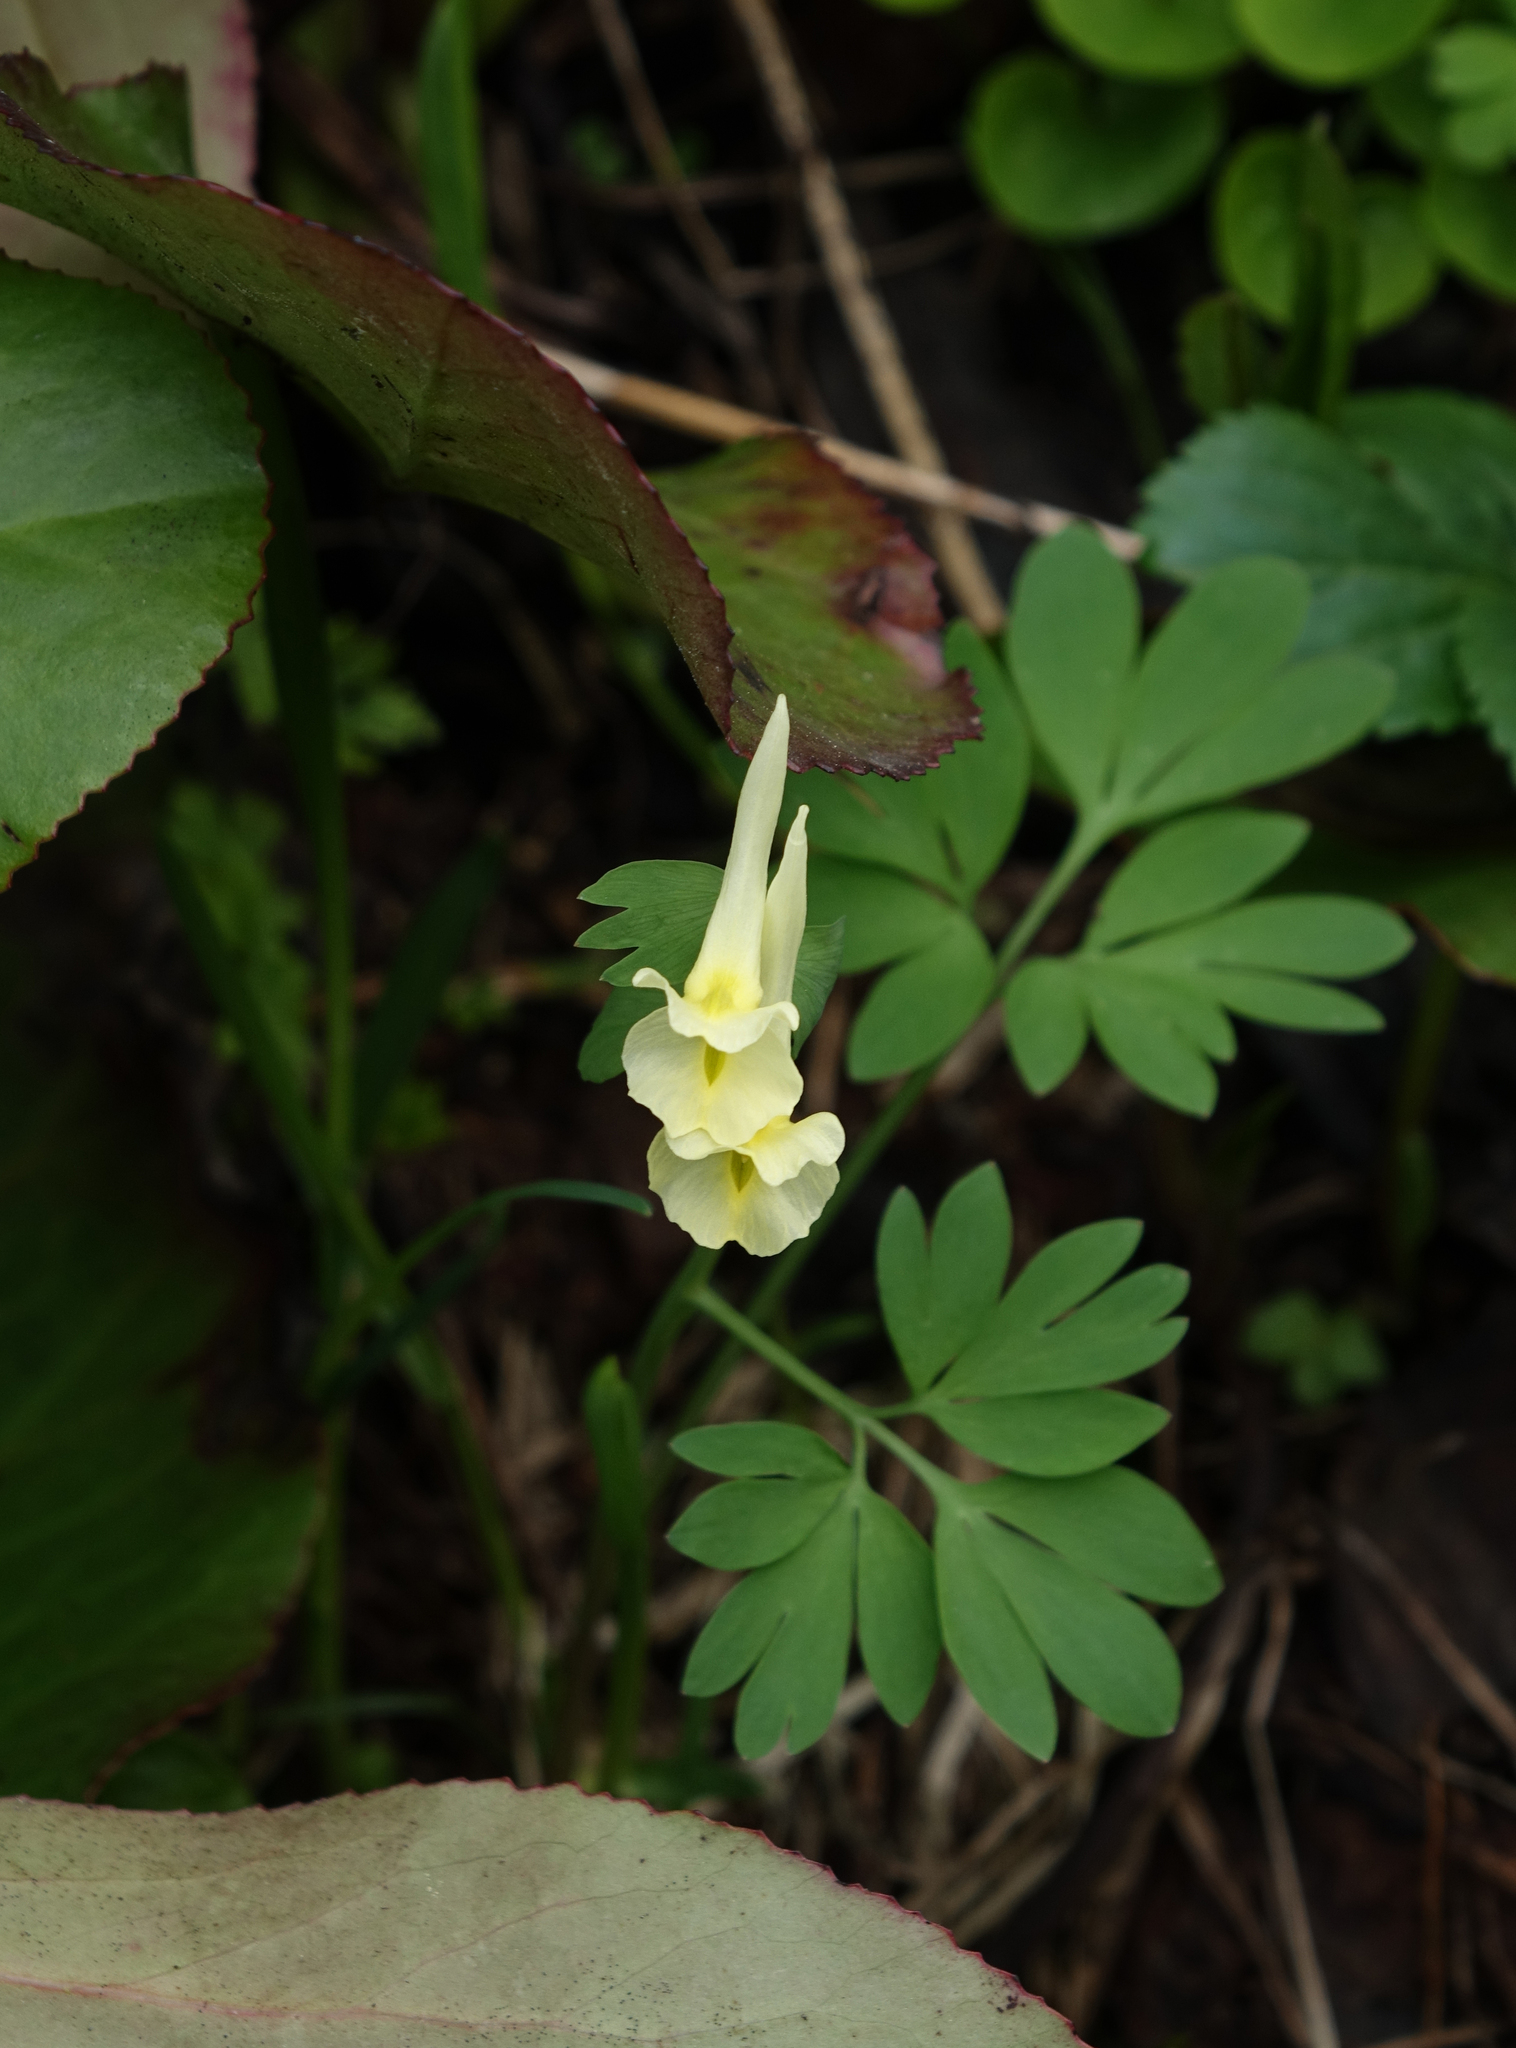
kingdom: Plantae
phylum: Tracheophyta
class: Magnoliopsida
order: Ranunculales
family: Papaveraceae
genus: Corydalis
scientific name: Corydalis bracteata
